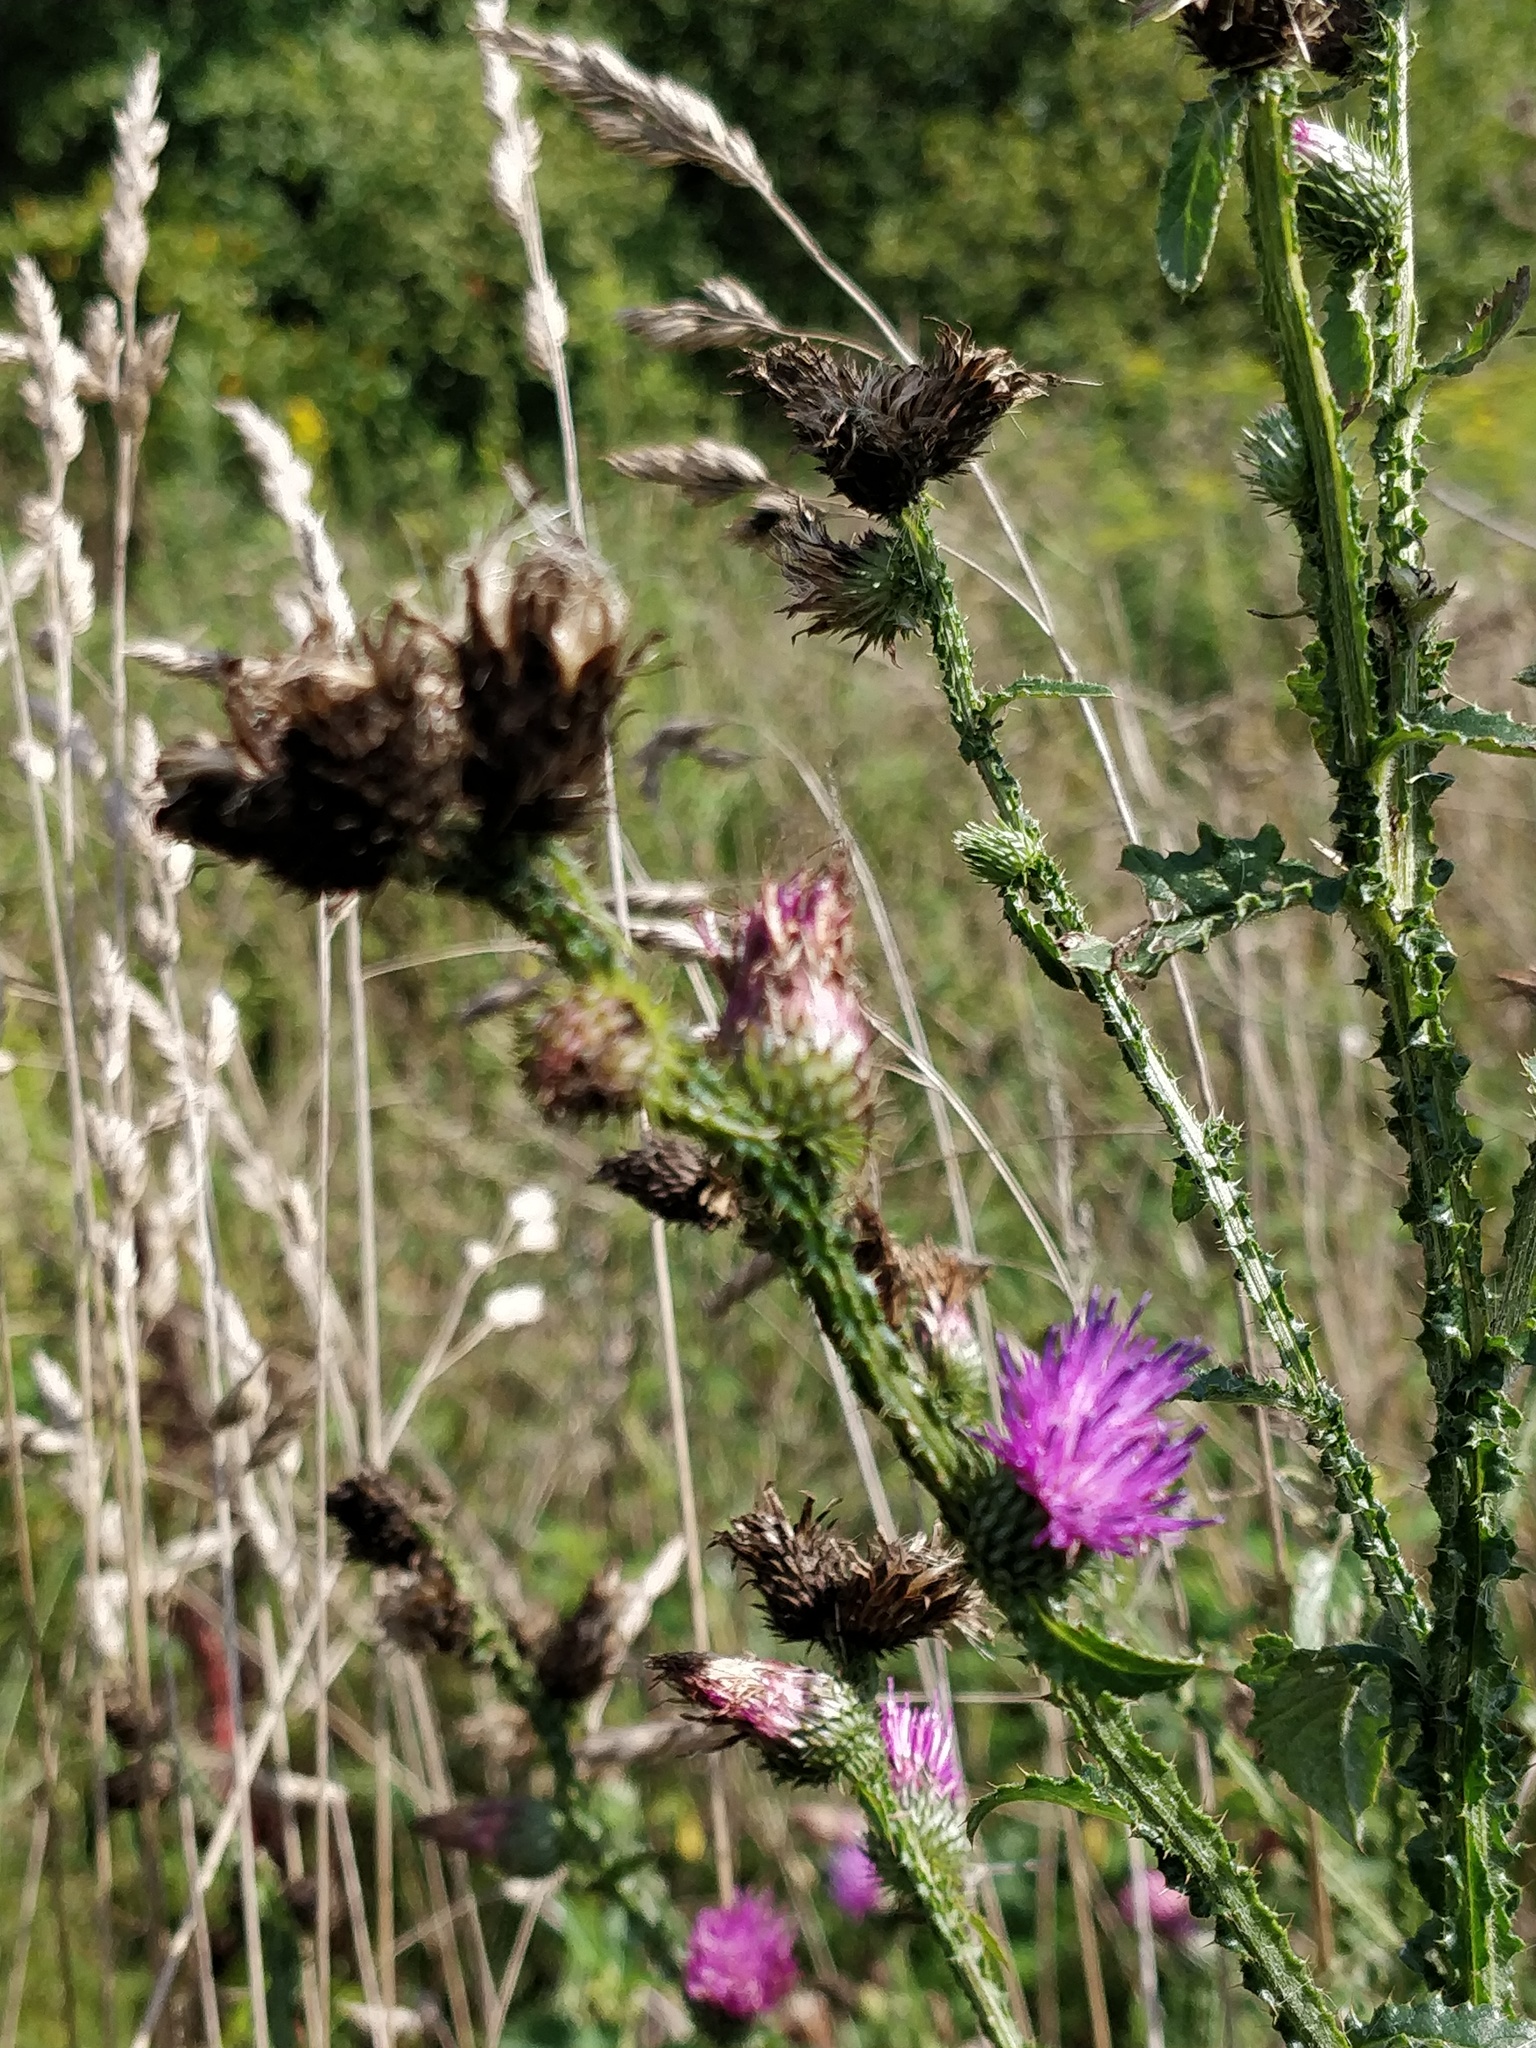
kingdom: Plantae
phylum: Tracheophyta
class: Magnoliopsida
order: Asterales
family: Asteraceae
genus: Carduus
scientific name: Carduus acanthoides
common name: Plumeless thistle
